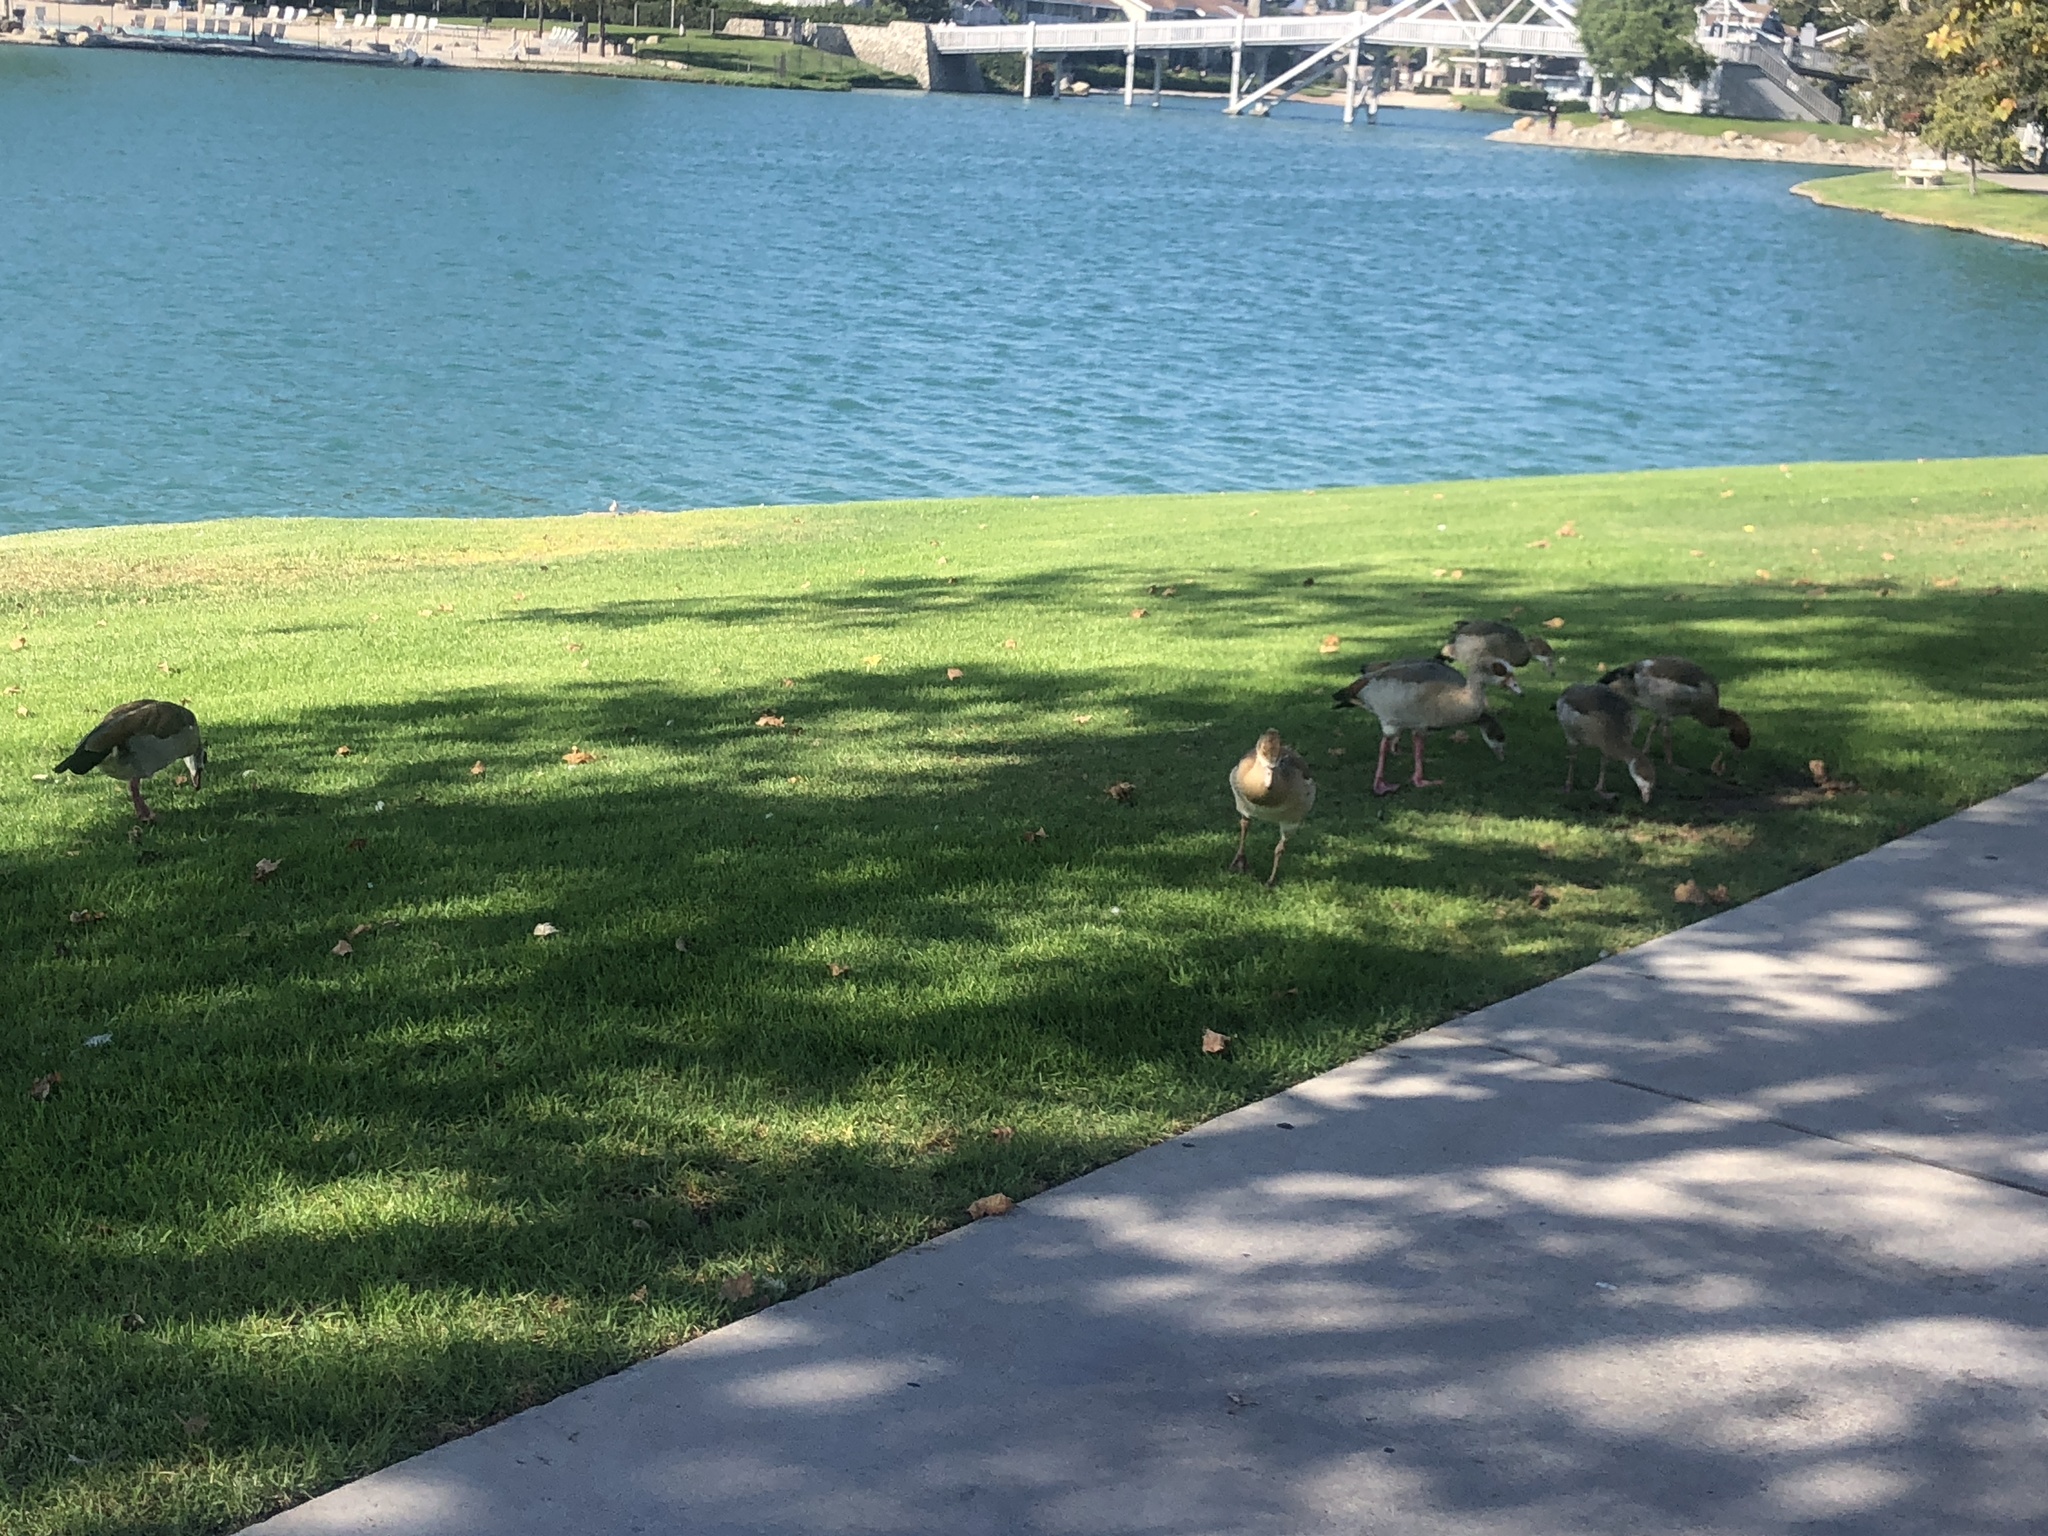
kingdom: Animalia
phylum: Chordata
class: Aves
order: Anseriformes
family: Anatidae
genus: Alopochen
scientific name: Alopochen aegyptiaca
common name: Egyptian goose
